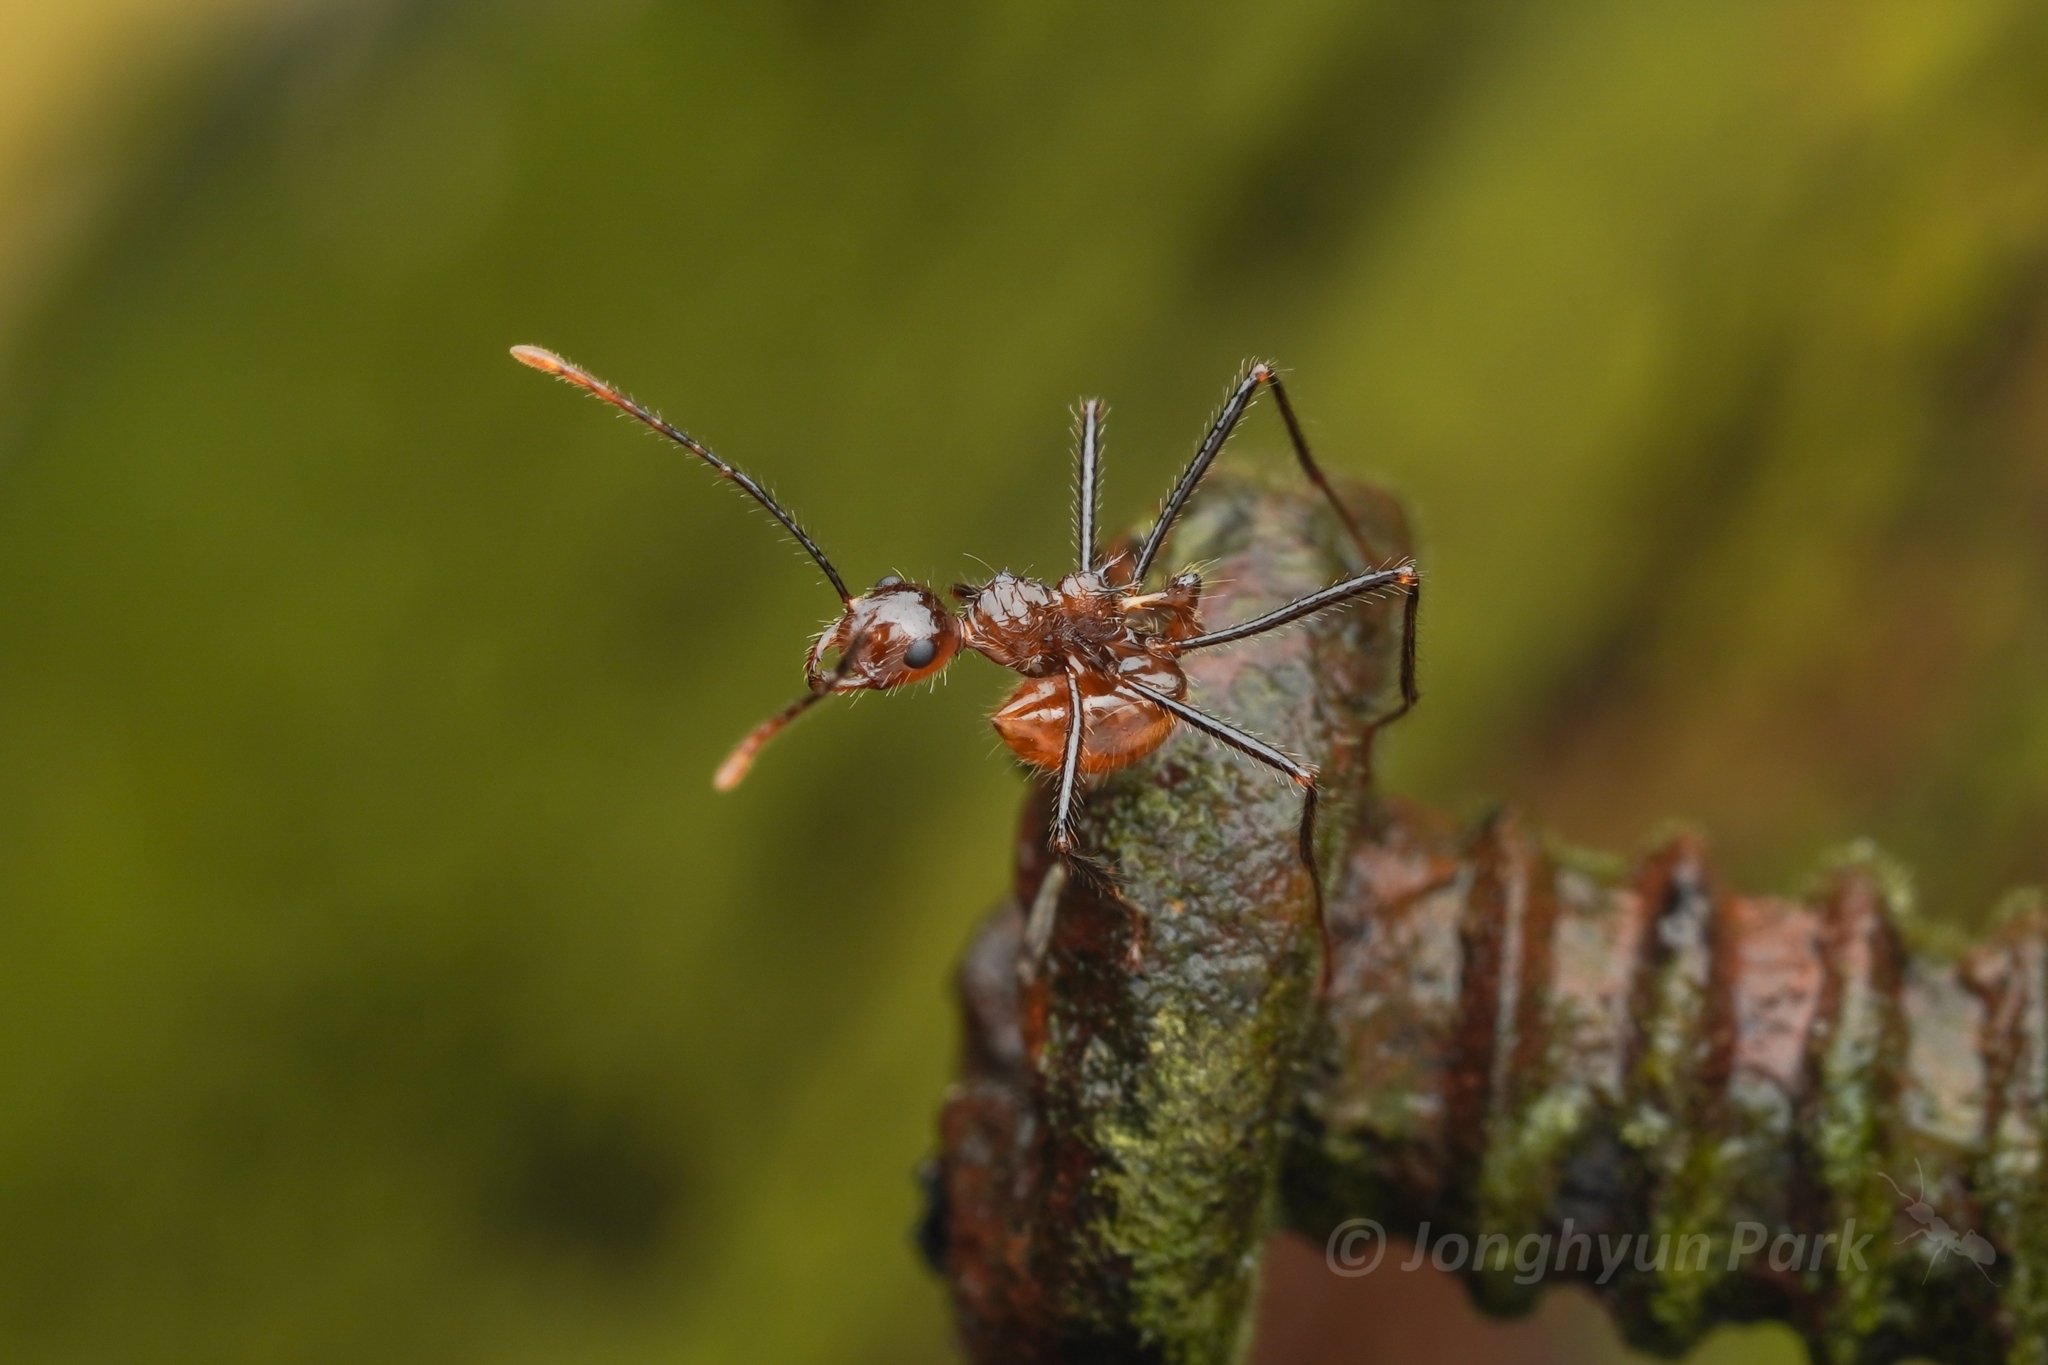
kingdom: Animalia
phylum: Arthropoda
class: Insecta
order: Hymenoptera
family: Formicidae
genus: Myrmicaria
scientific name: Myrmicaria
